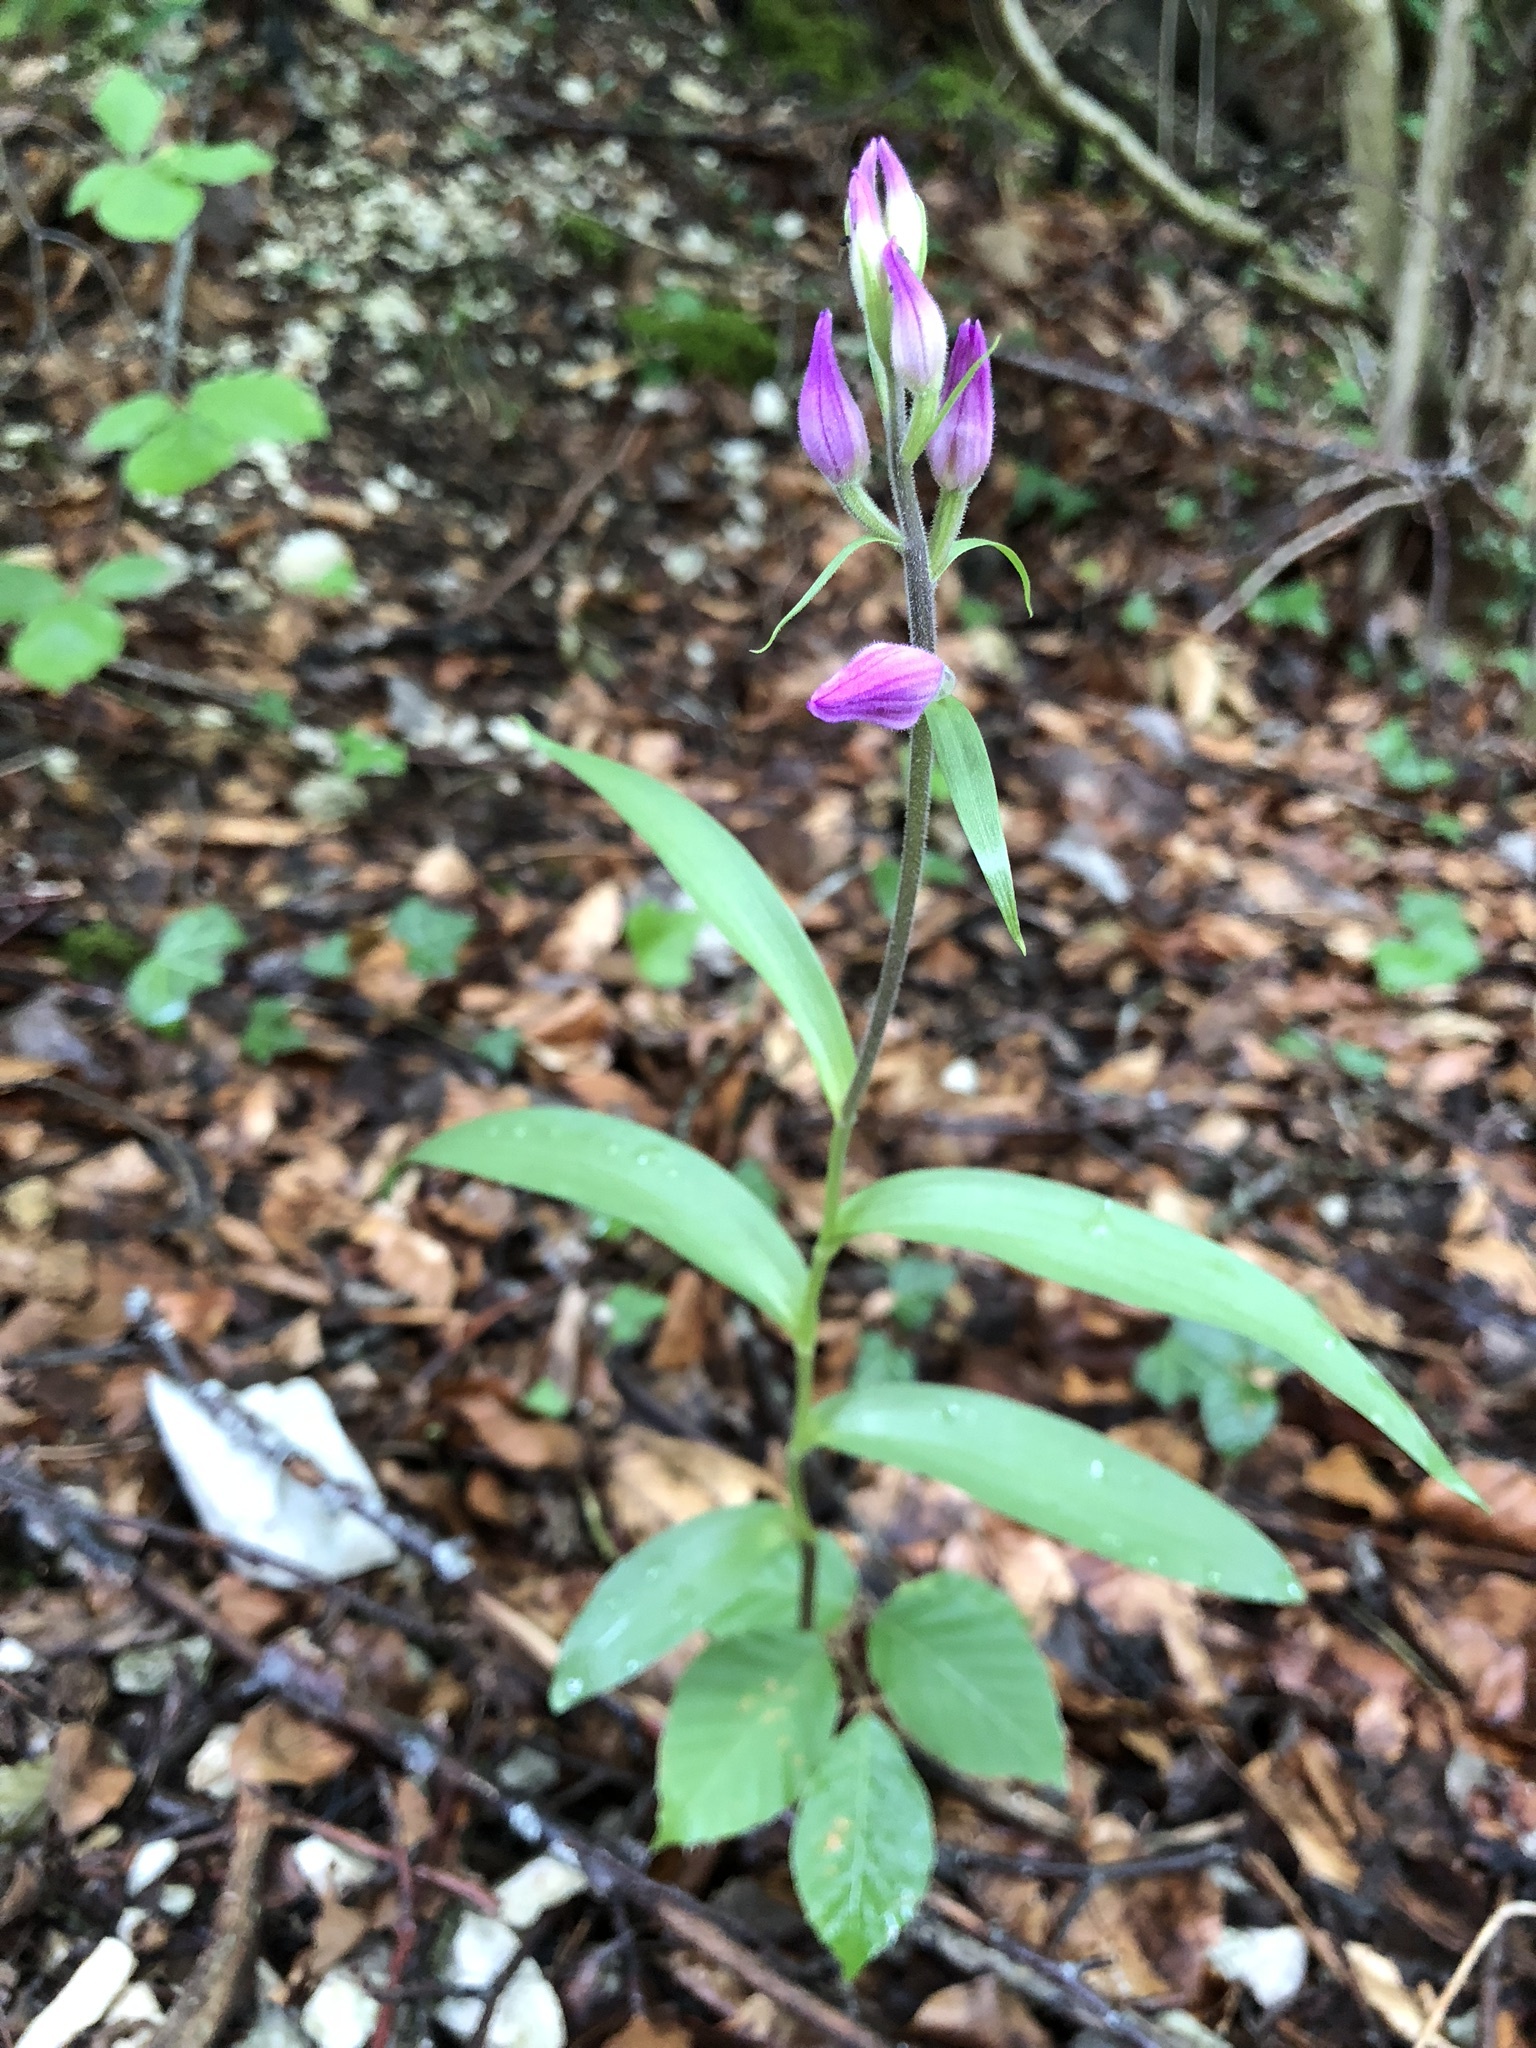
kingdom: Plantae
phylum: Tracheophyta
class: Liliopsida
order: Asparagales
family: Orchidaceae
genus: Cephalanthera
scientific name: Cephalanthera rubra
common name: Red helleborine
